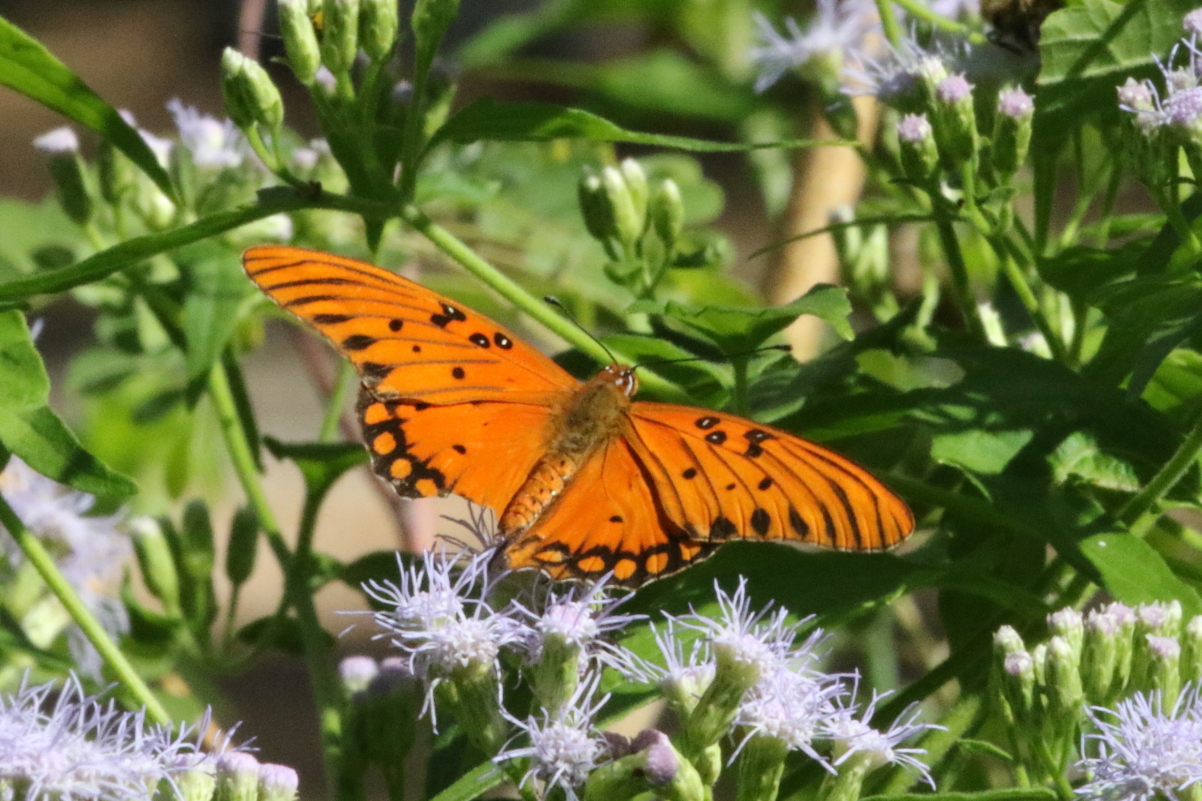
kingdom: Animalia
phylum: Arthropoda
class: Insecta
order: Lepidoptera
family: Nymphalidae
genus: Dione
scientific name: Dione vanillae
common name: Gulf fritillary
